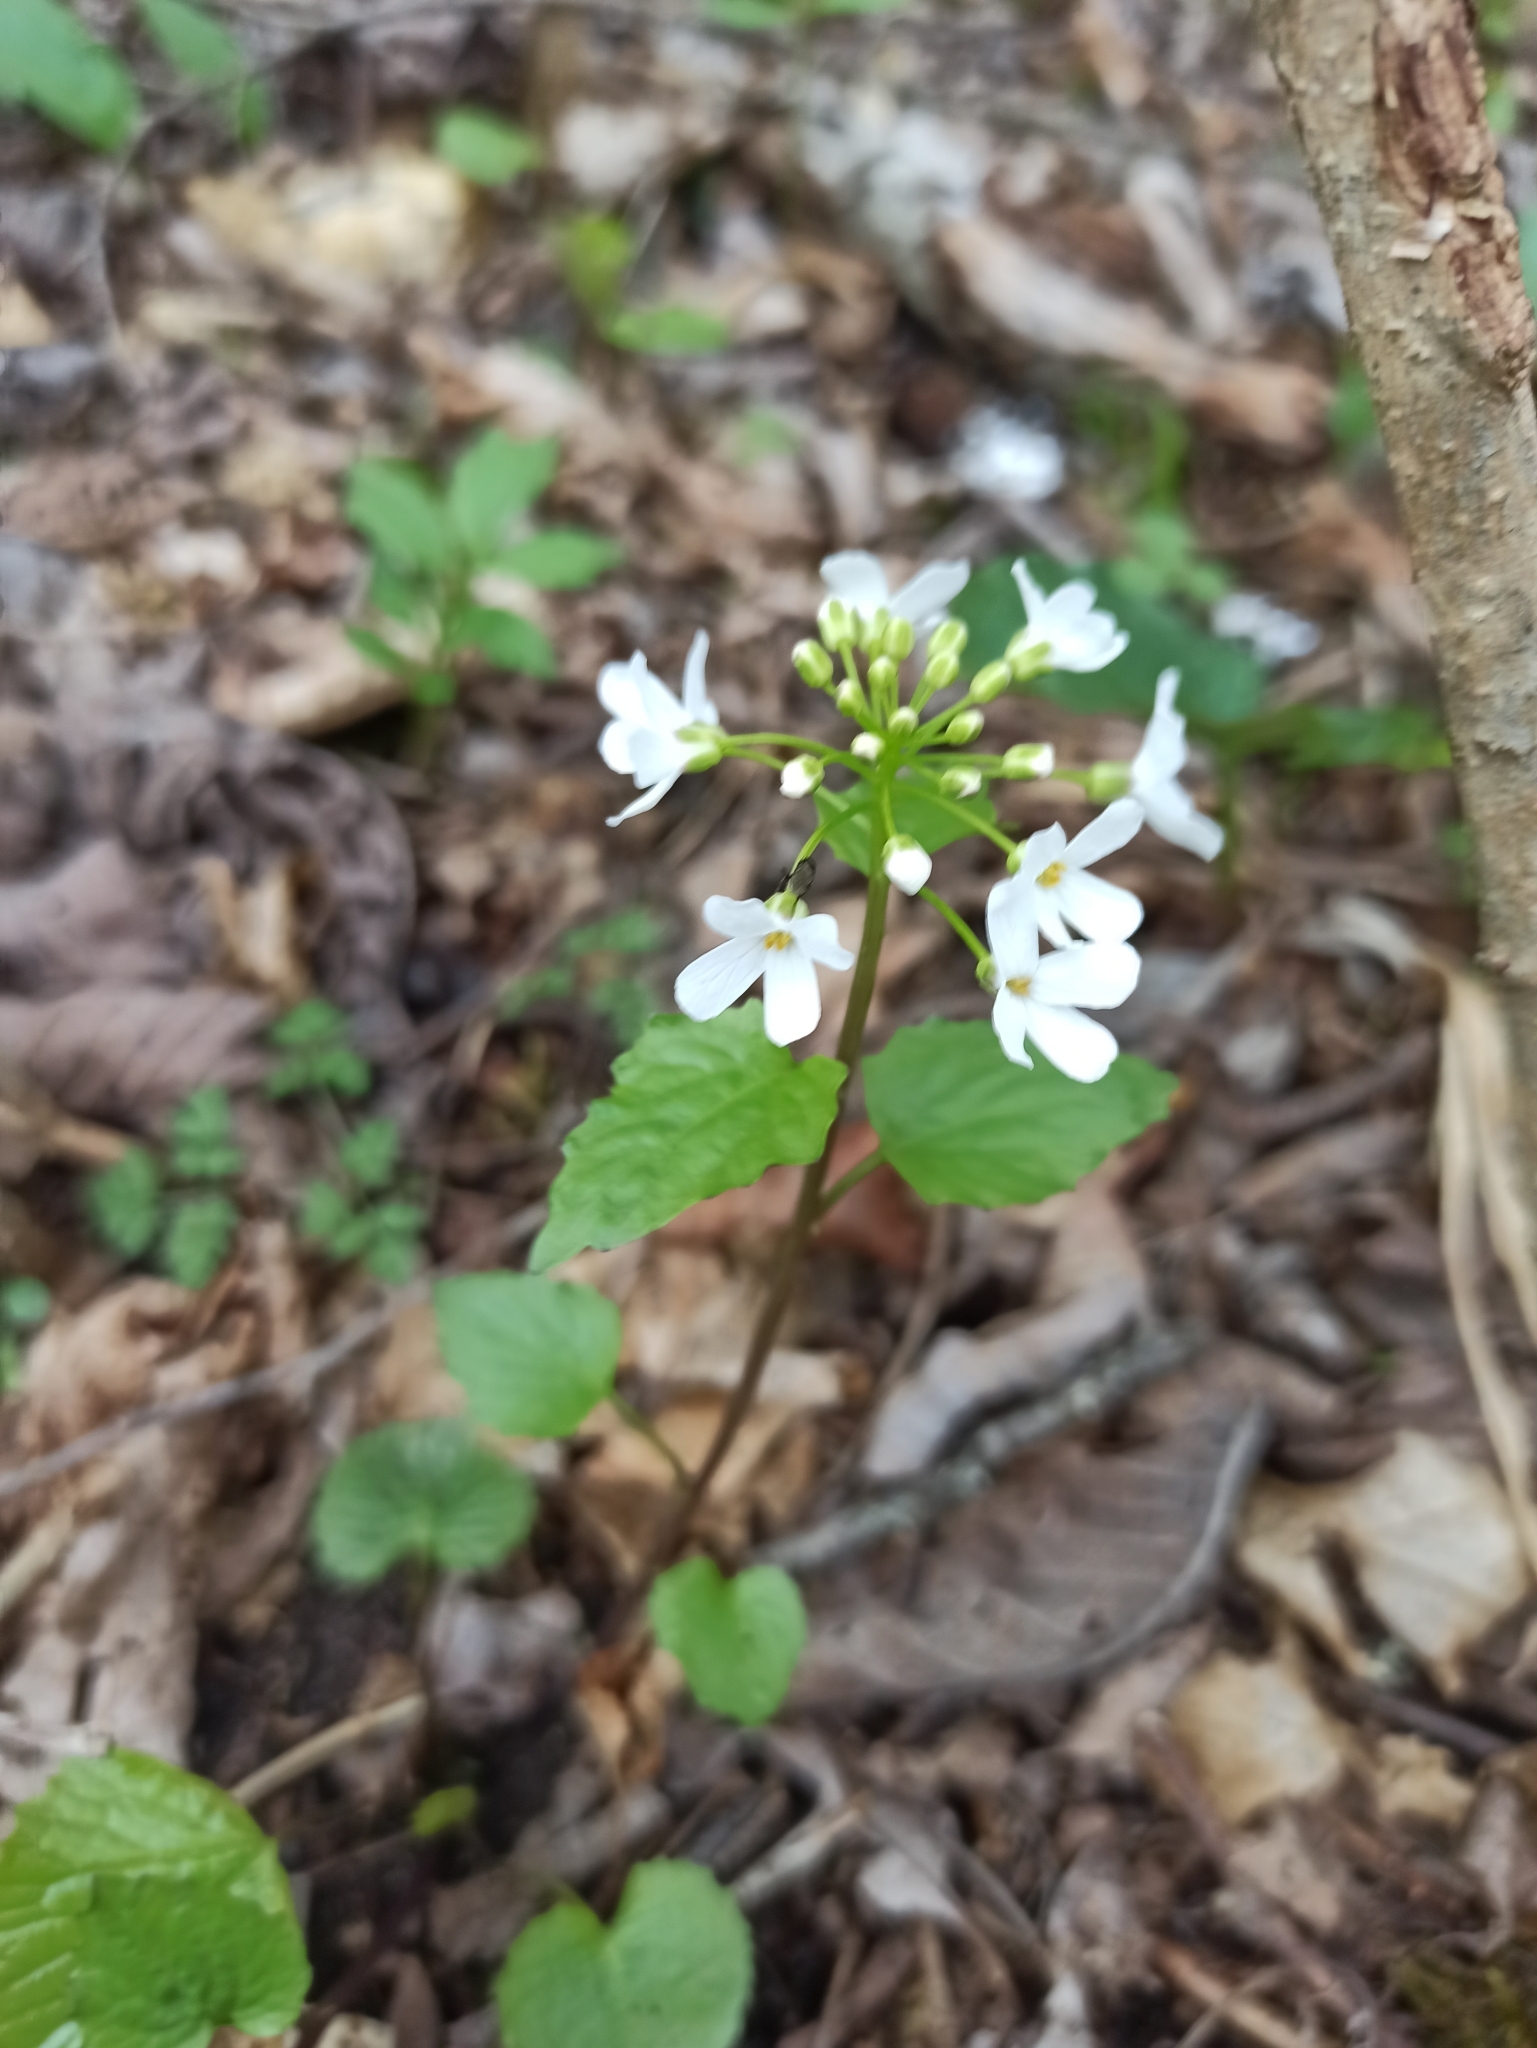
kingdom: Plantae
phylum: Tracheophyta
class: Magnoliopsida
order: Brassicales
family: Brassicaceae
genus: Pachyphragma
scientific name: Pachyphragma macrophyllum
